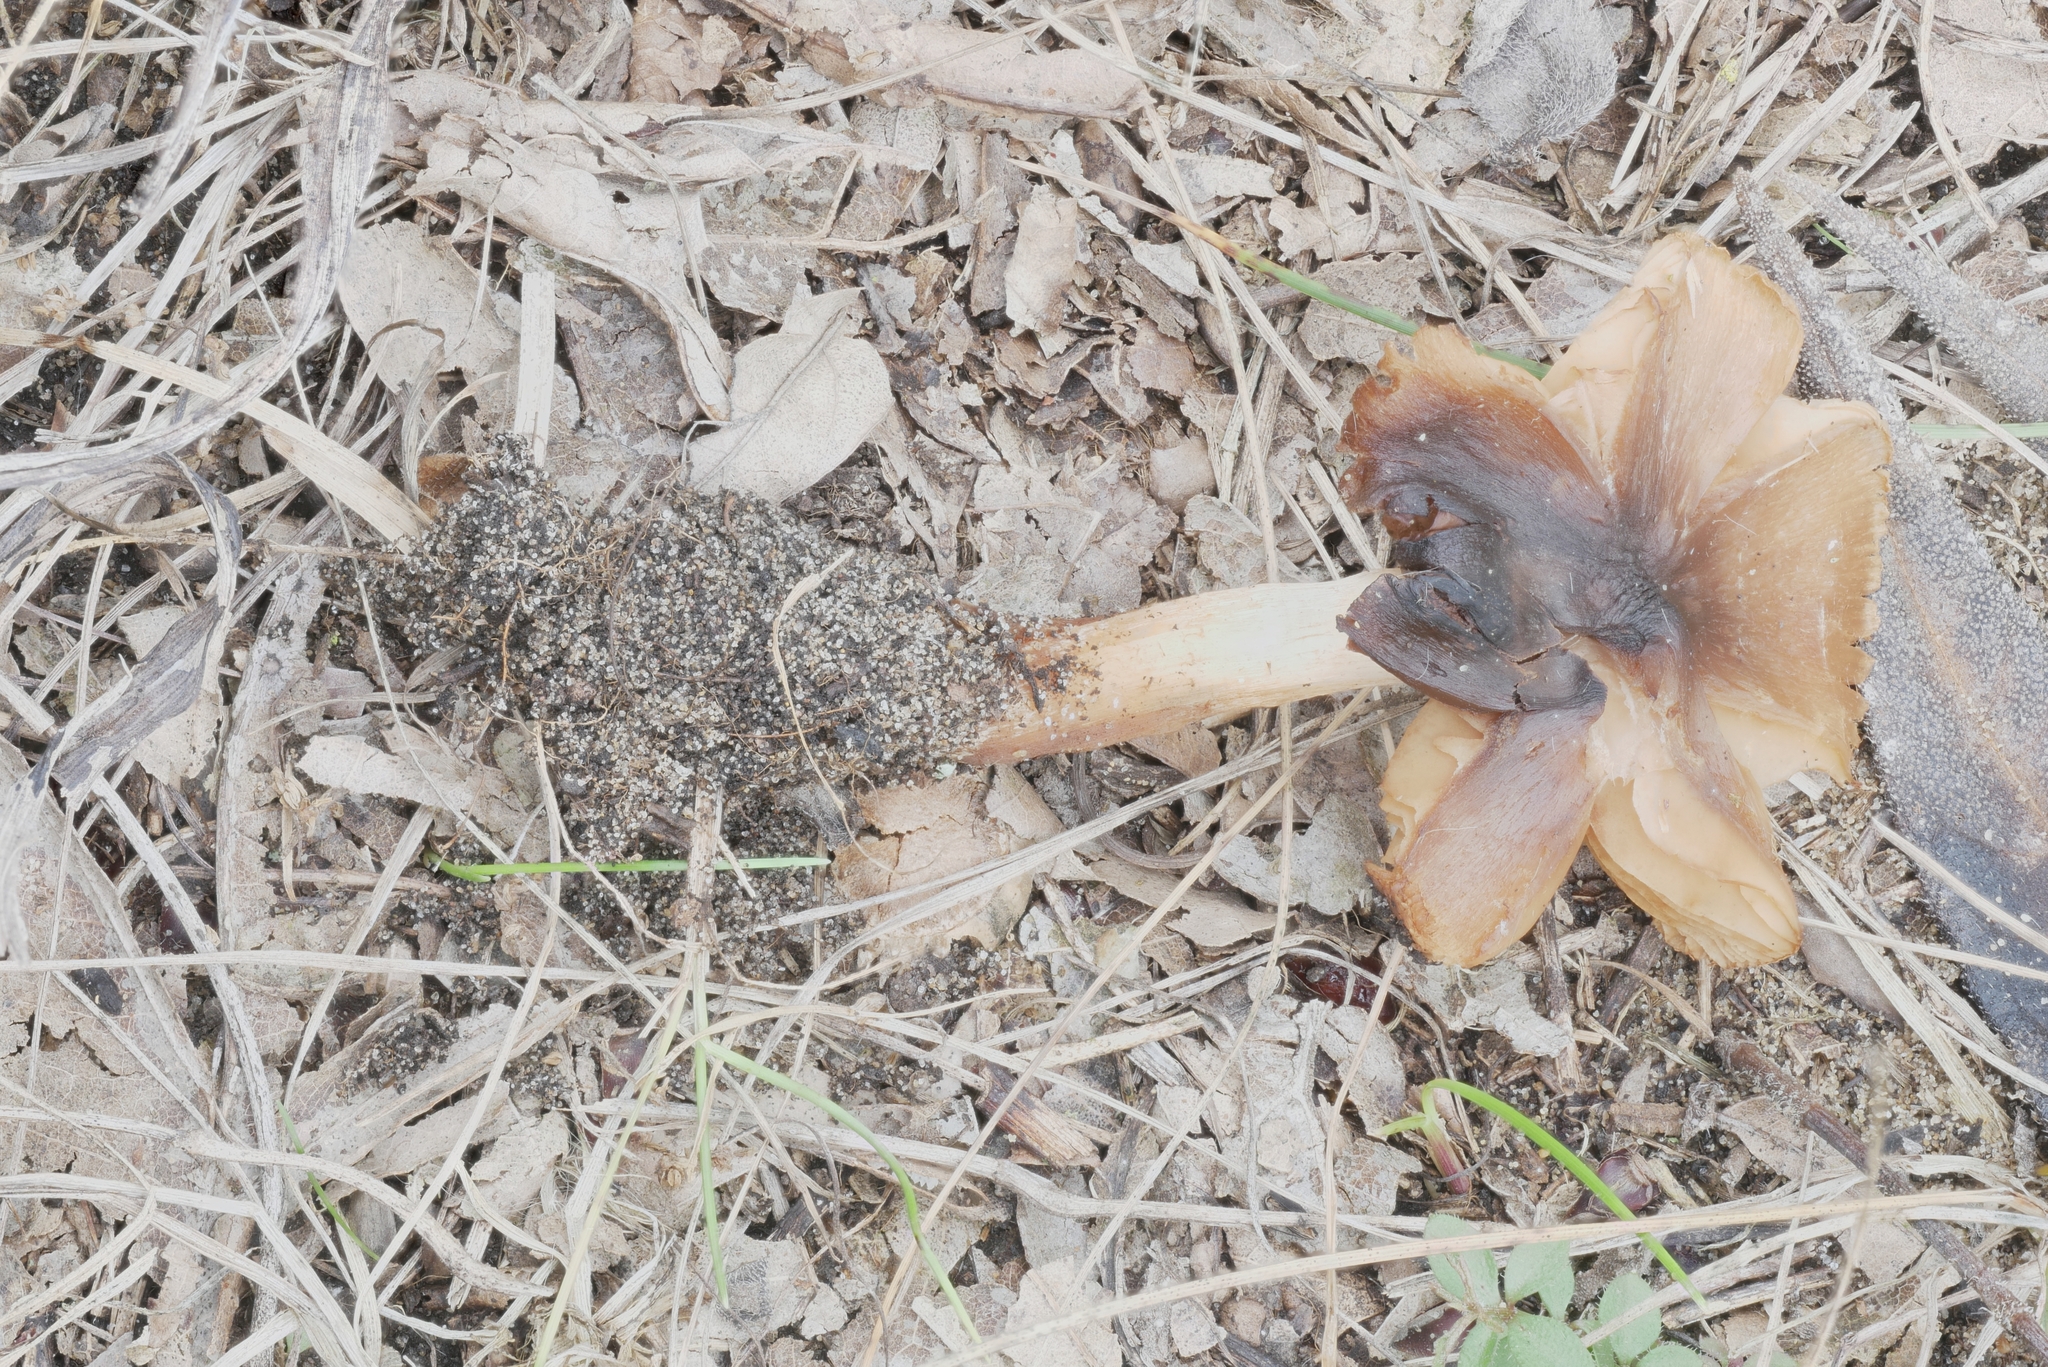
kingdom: Fungi
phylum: Basidiomycota
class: Agaricomycetes
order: Agaricales
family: Mycenaceae
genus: Mycena
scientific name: Mycena galericulata
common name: Bonnet mycena
